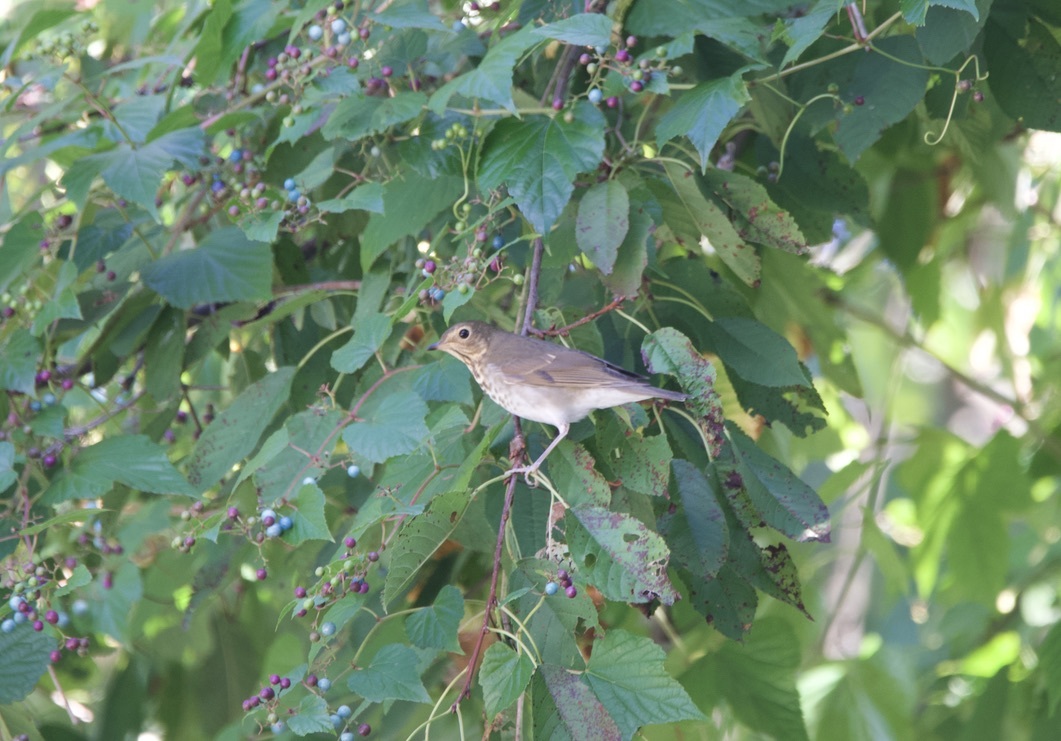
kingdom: Animalia
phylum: Chordata
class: Aves
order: Passeriformes
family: Turdidae
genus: Catharus
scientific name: Catharus ustulatus
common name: Swainson's thrush
